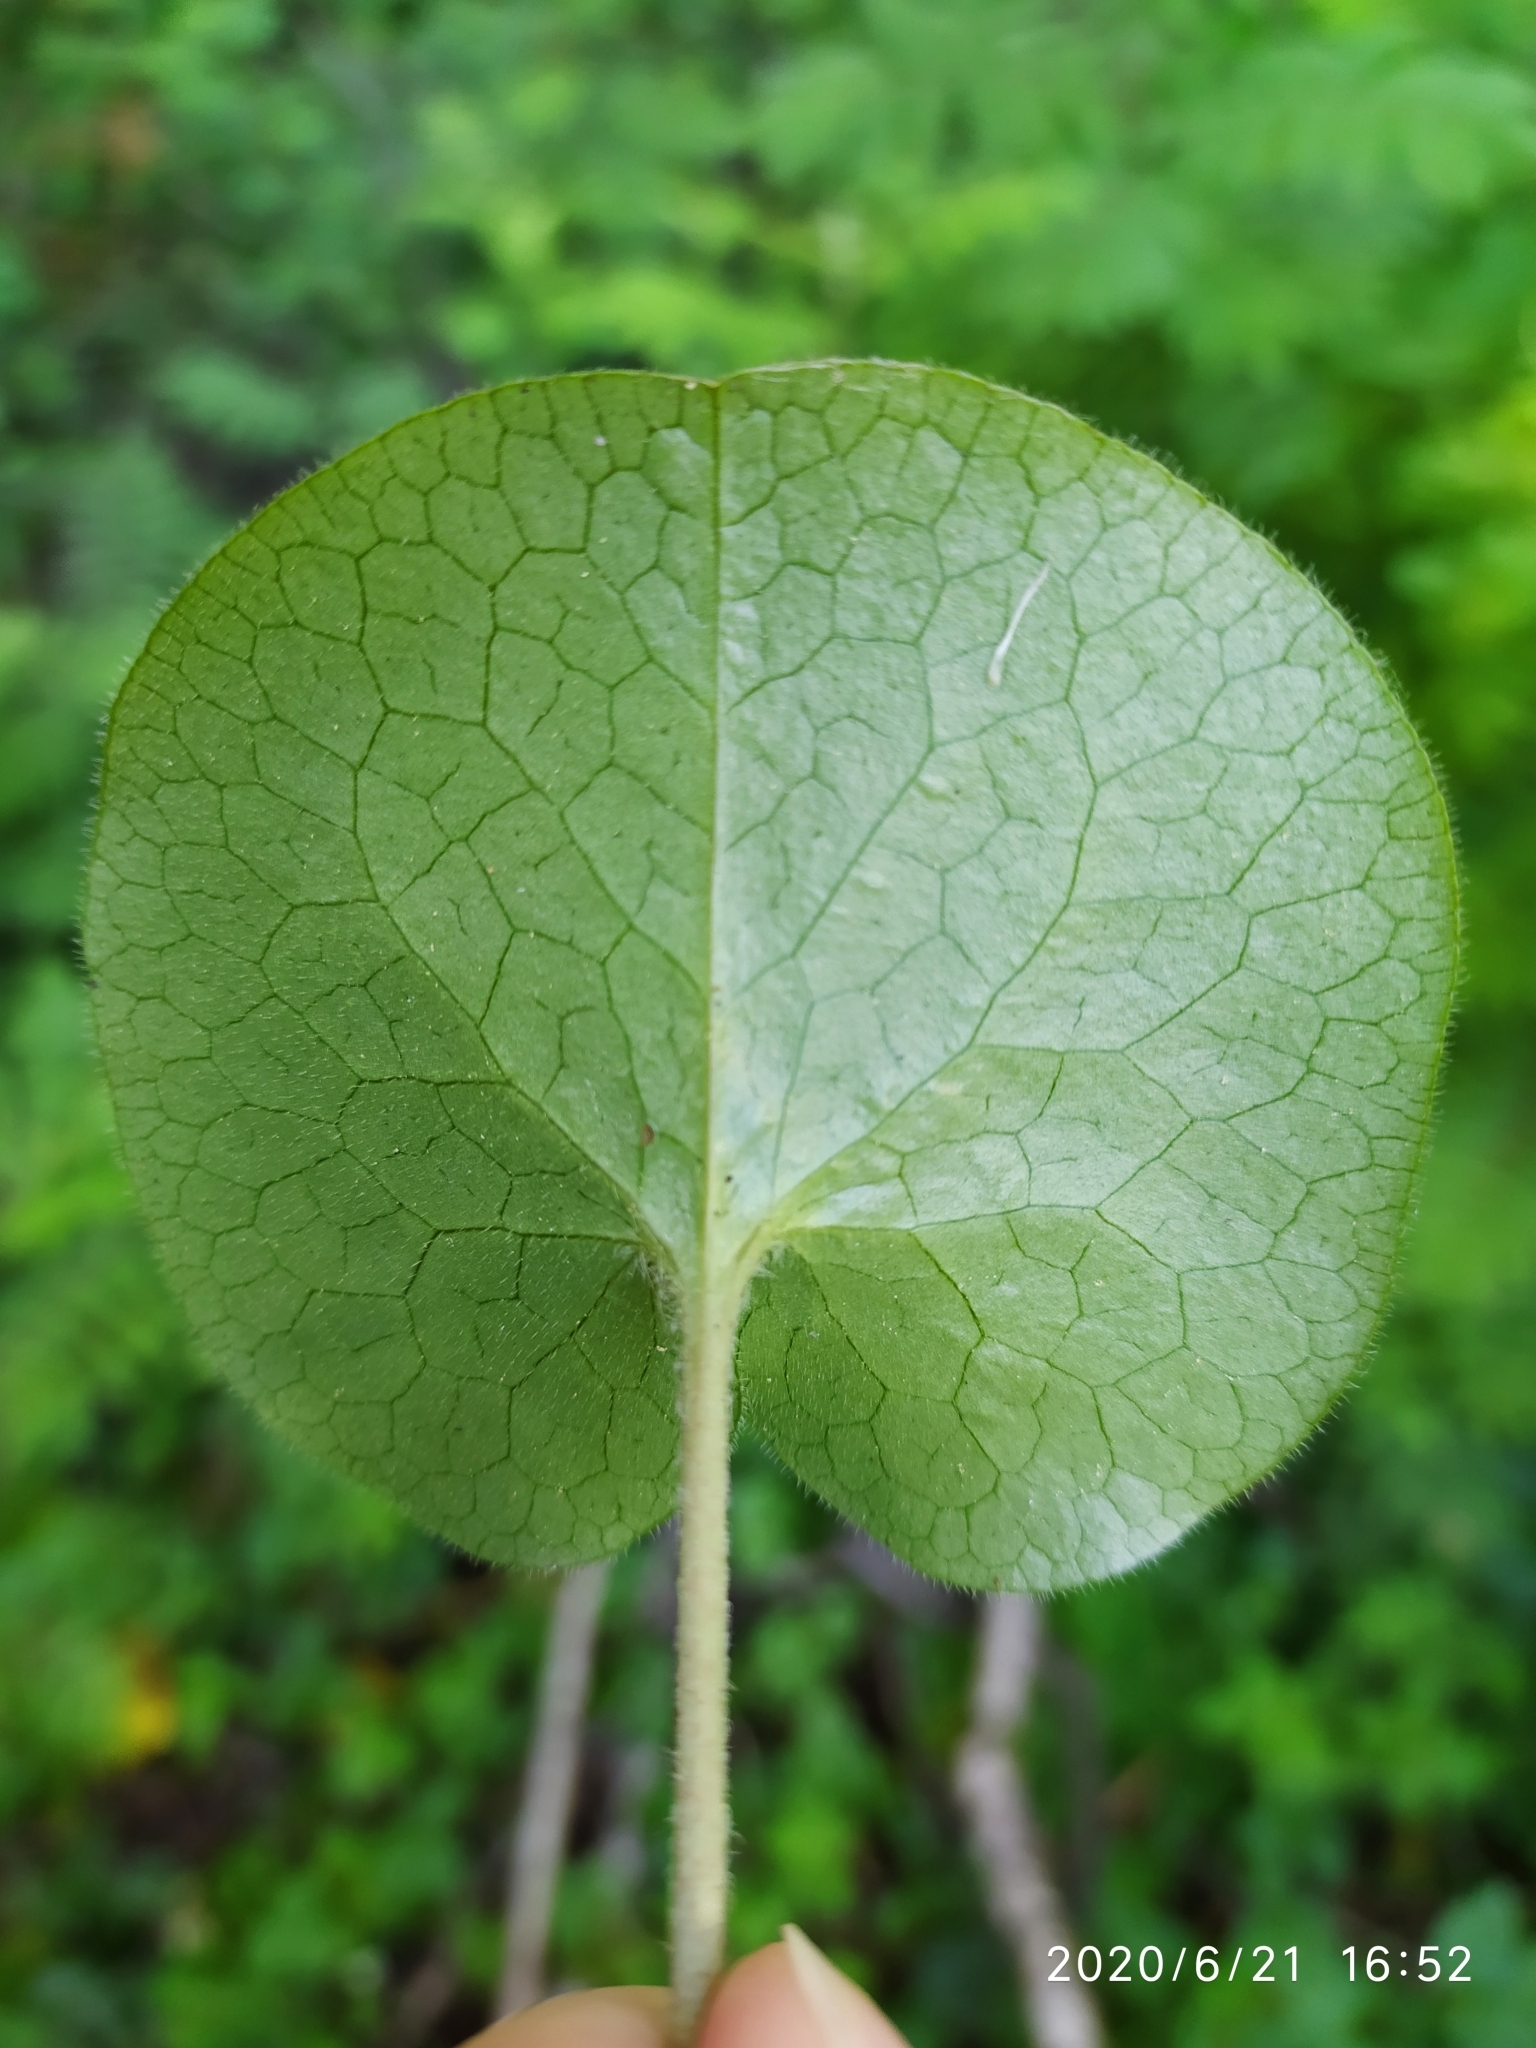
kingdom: Plantae
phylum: Tracheophyta
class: Magnoliopsida
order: Piperales
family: Aristolochiaceae
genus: Asarum
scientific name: Asarum europaeum
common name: Asarabacca
